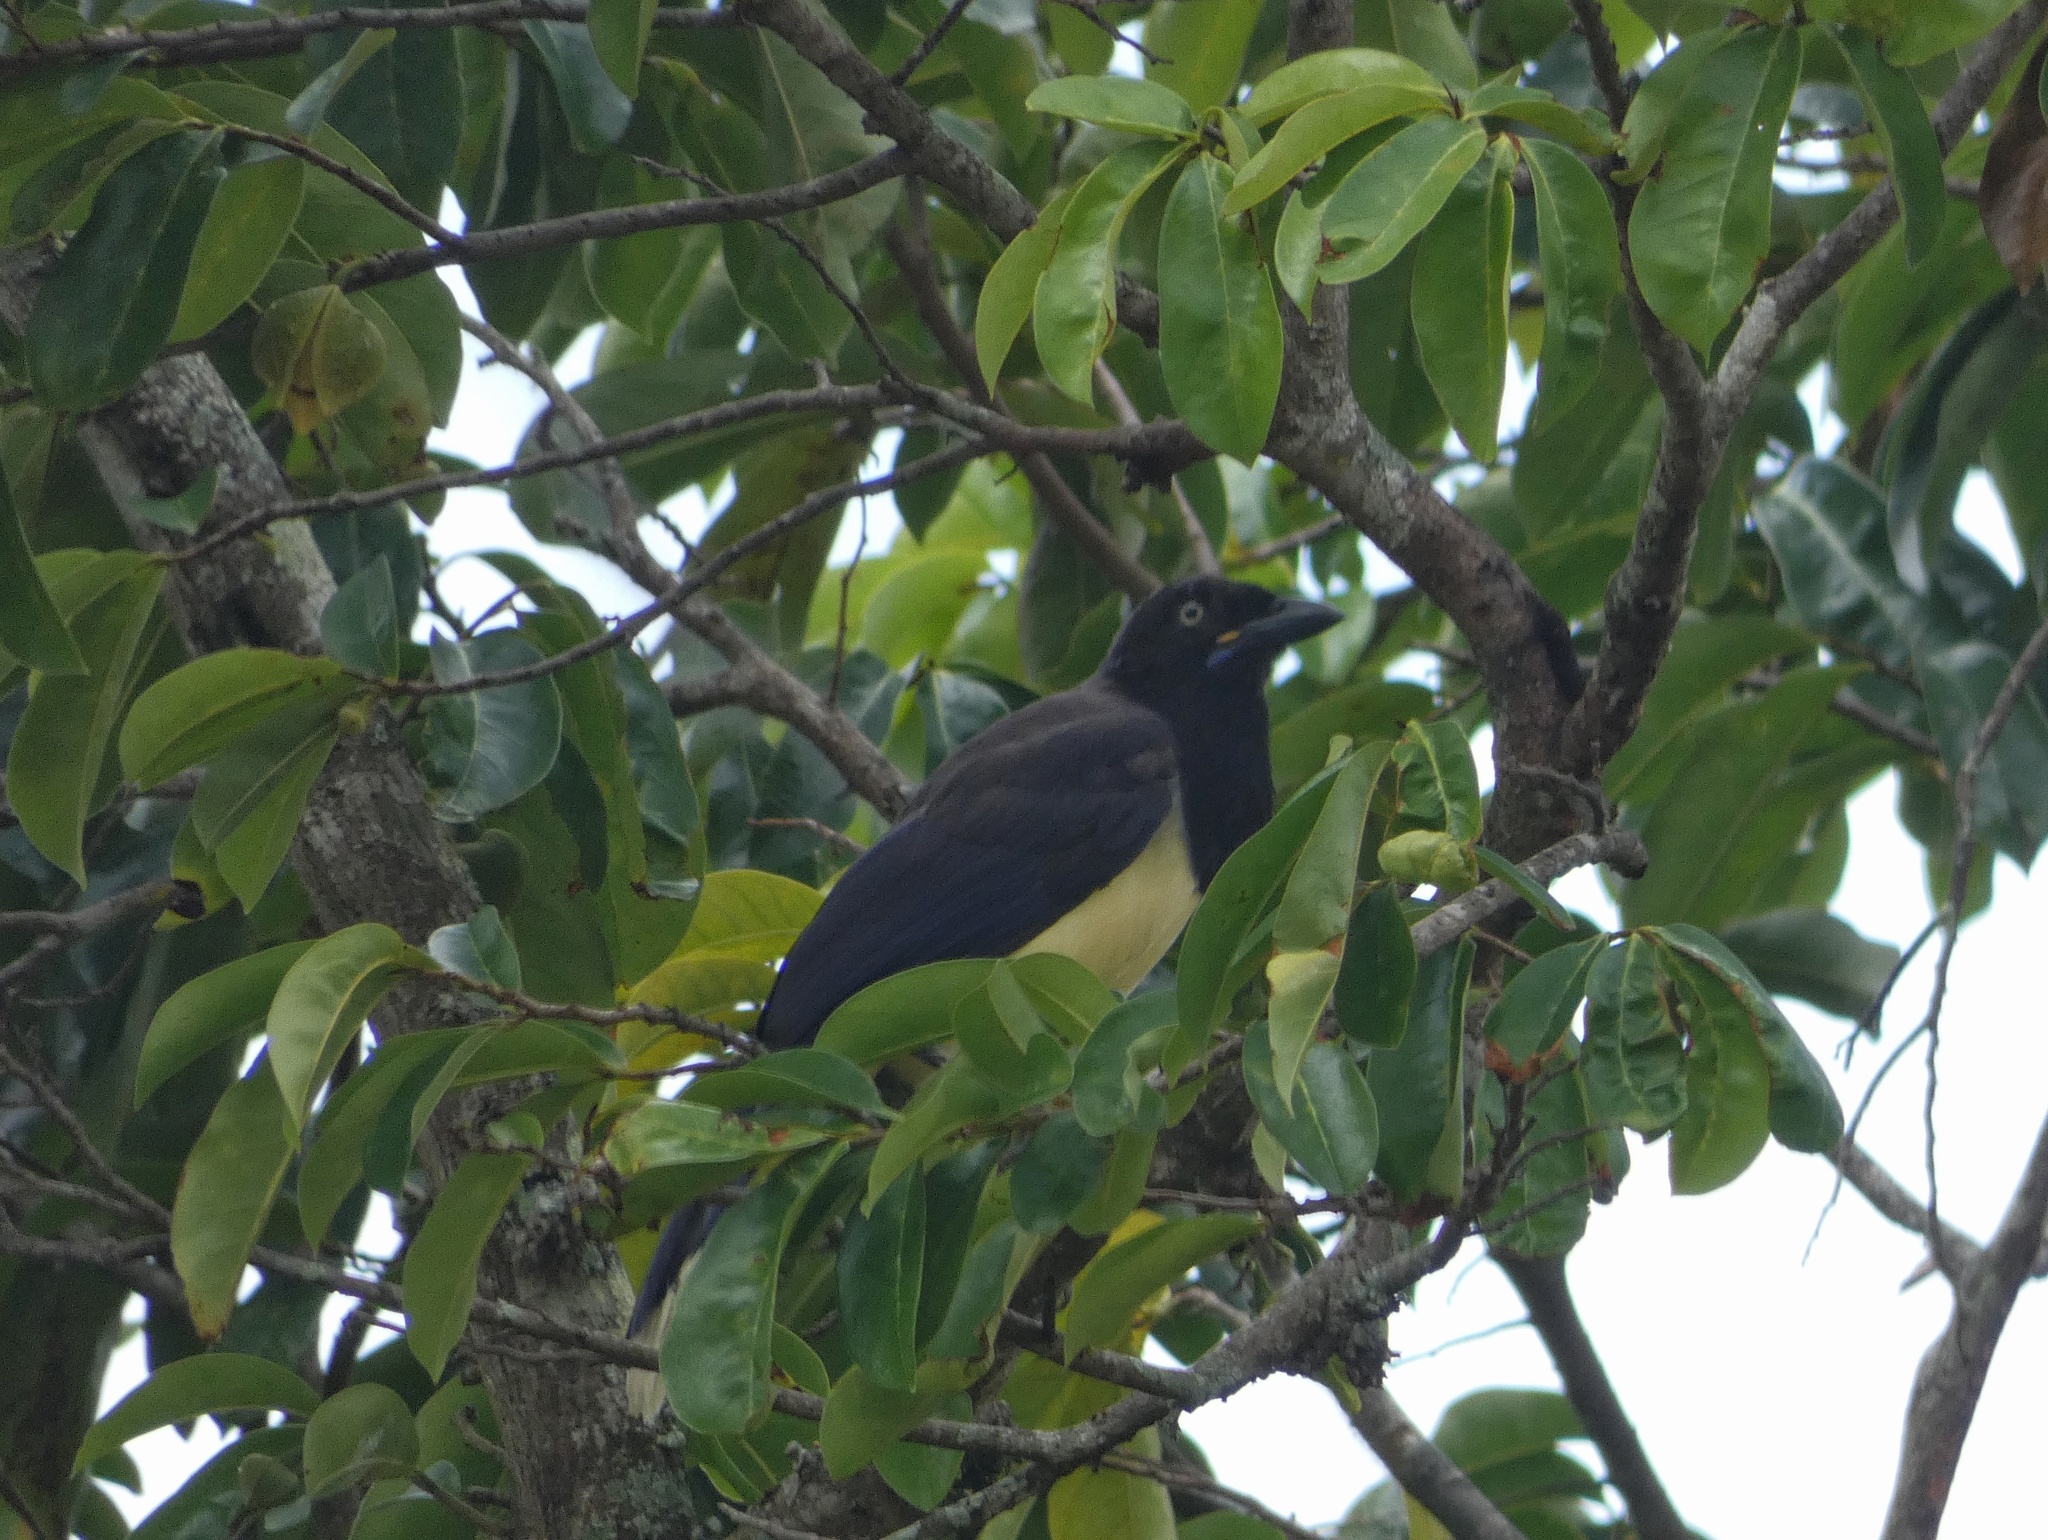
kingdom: Animalia
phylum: Chordata
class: Aves
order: Passeriformes
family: Corvidae
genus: Cyanocorax
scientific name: Cyanocorax affinis
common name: Black-chested jay
